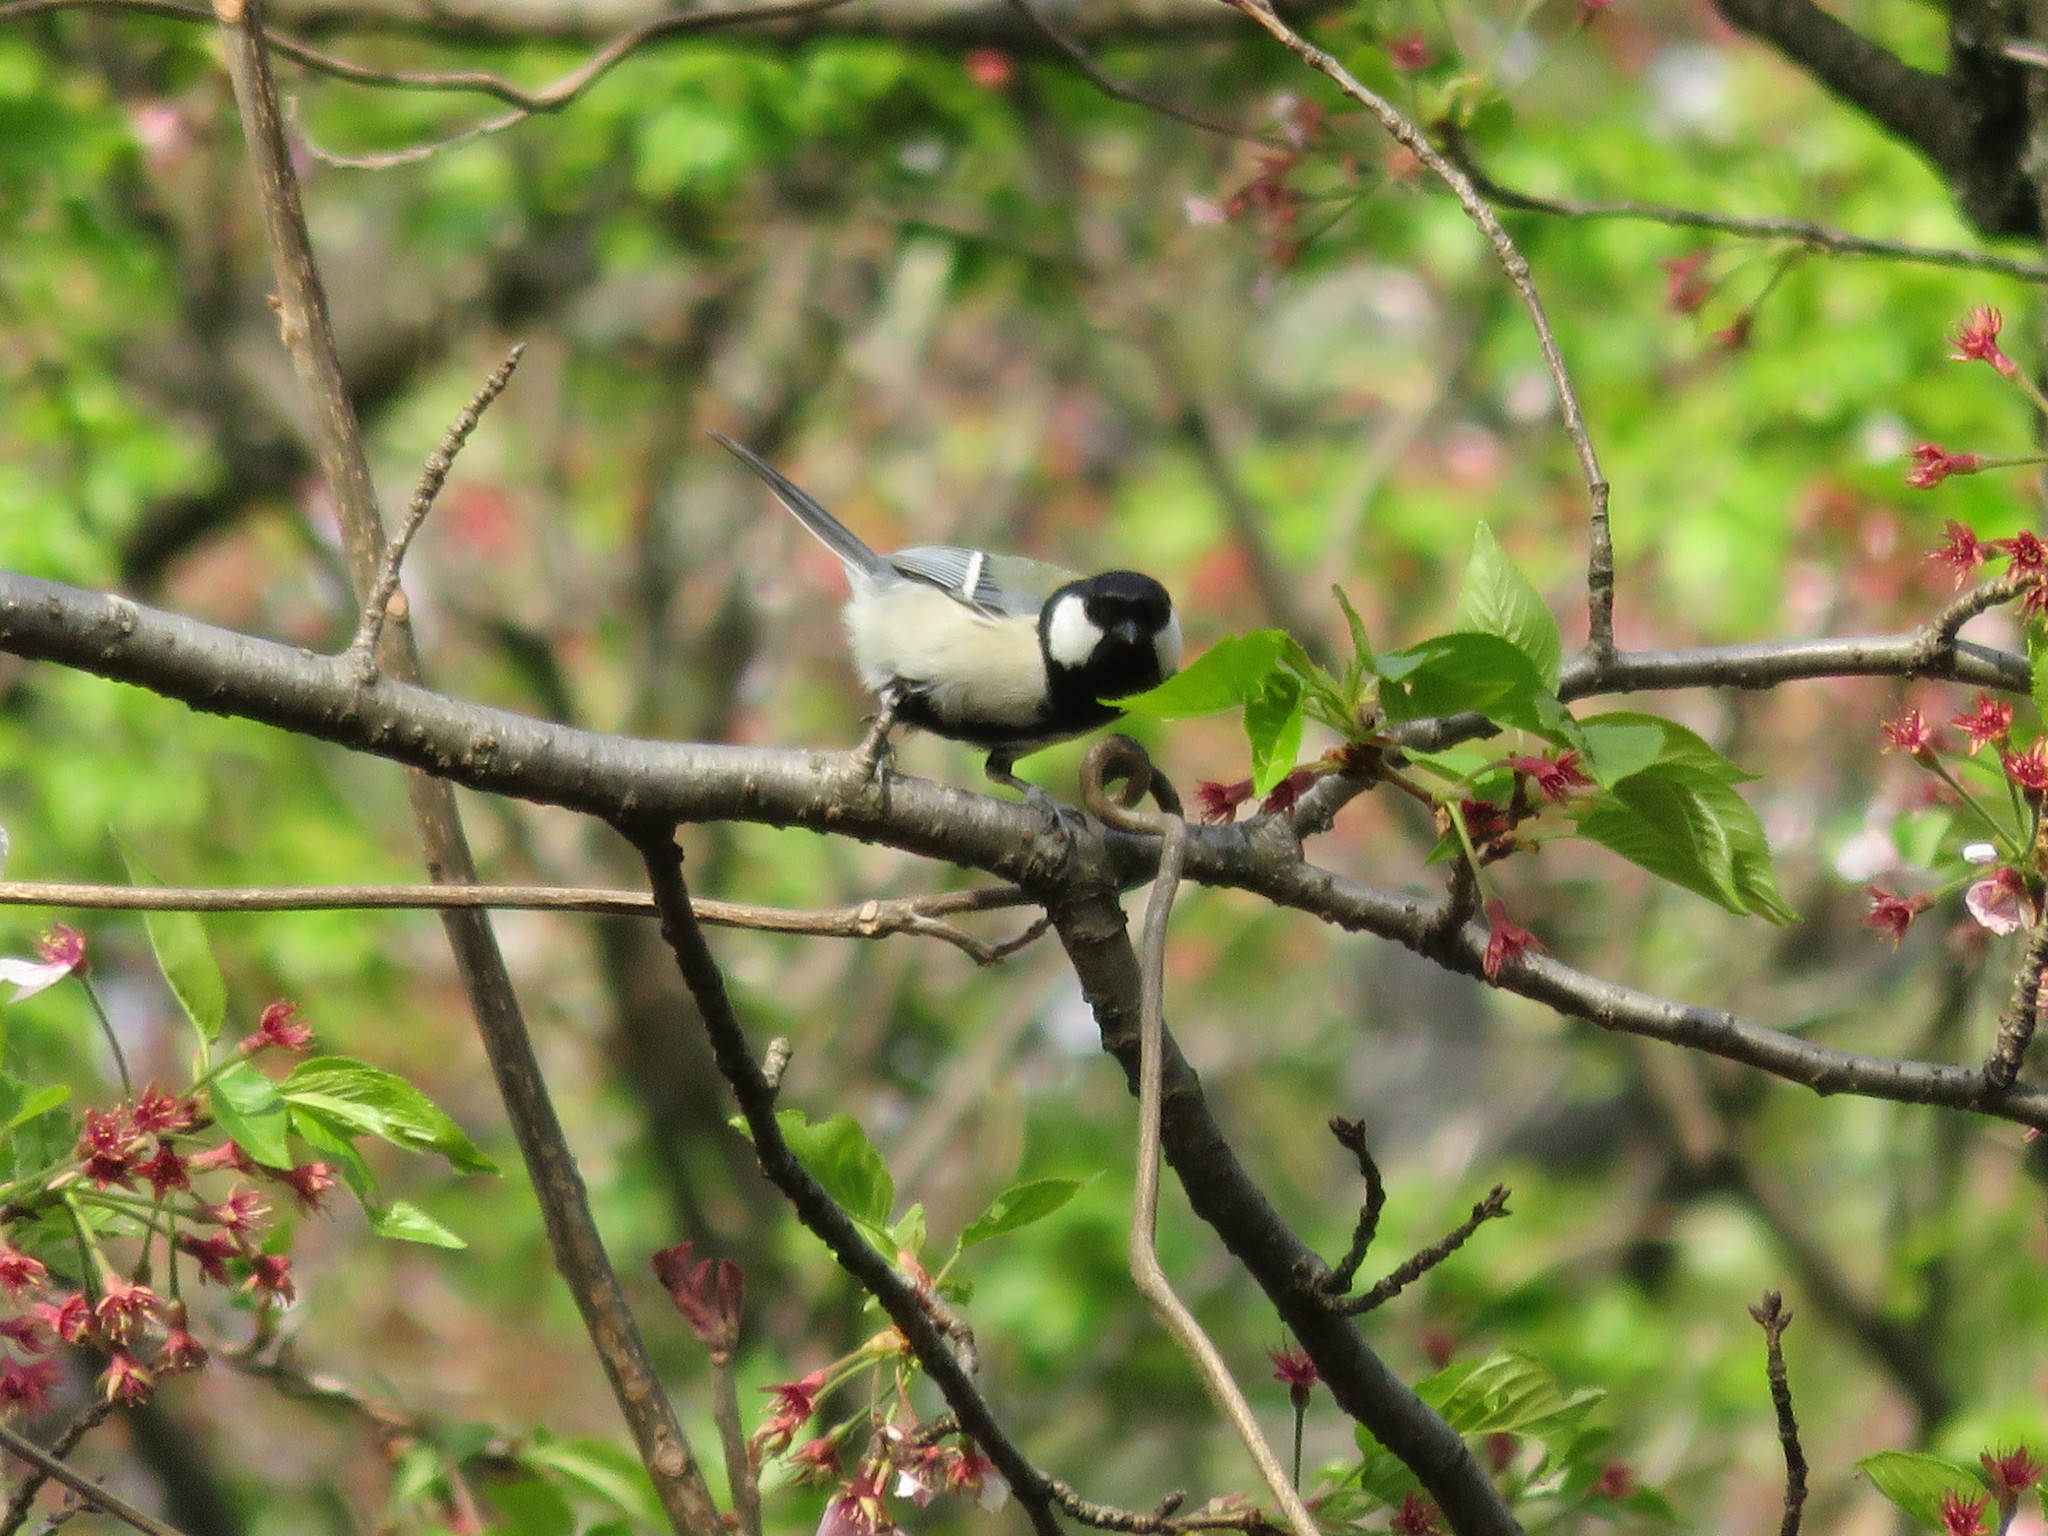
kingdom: Animalia
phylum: Chordata
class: Aves
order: Passeriformes
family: Paridae
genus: Parus
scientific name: Parus minor
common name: Japanese tit
